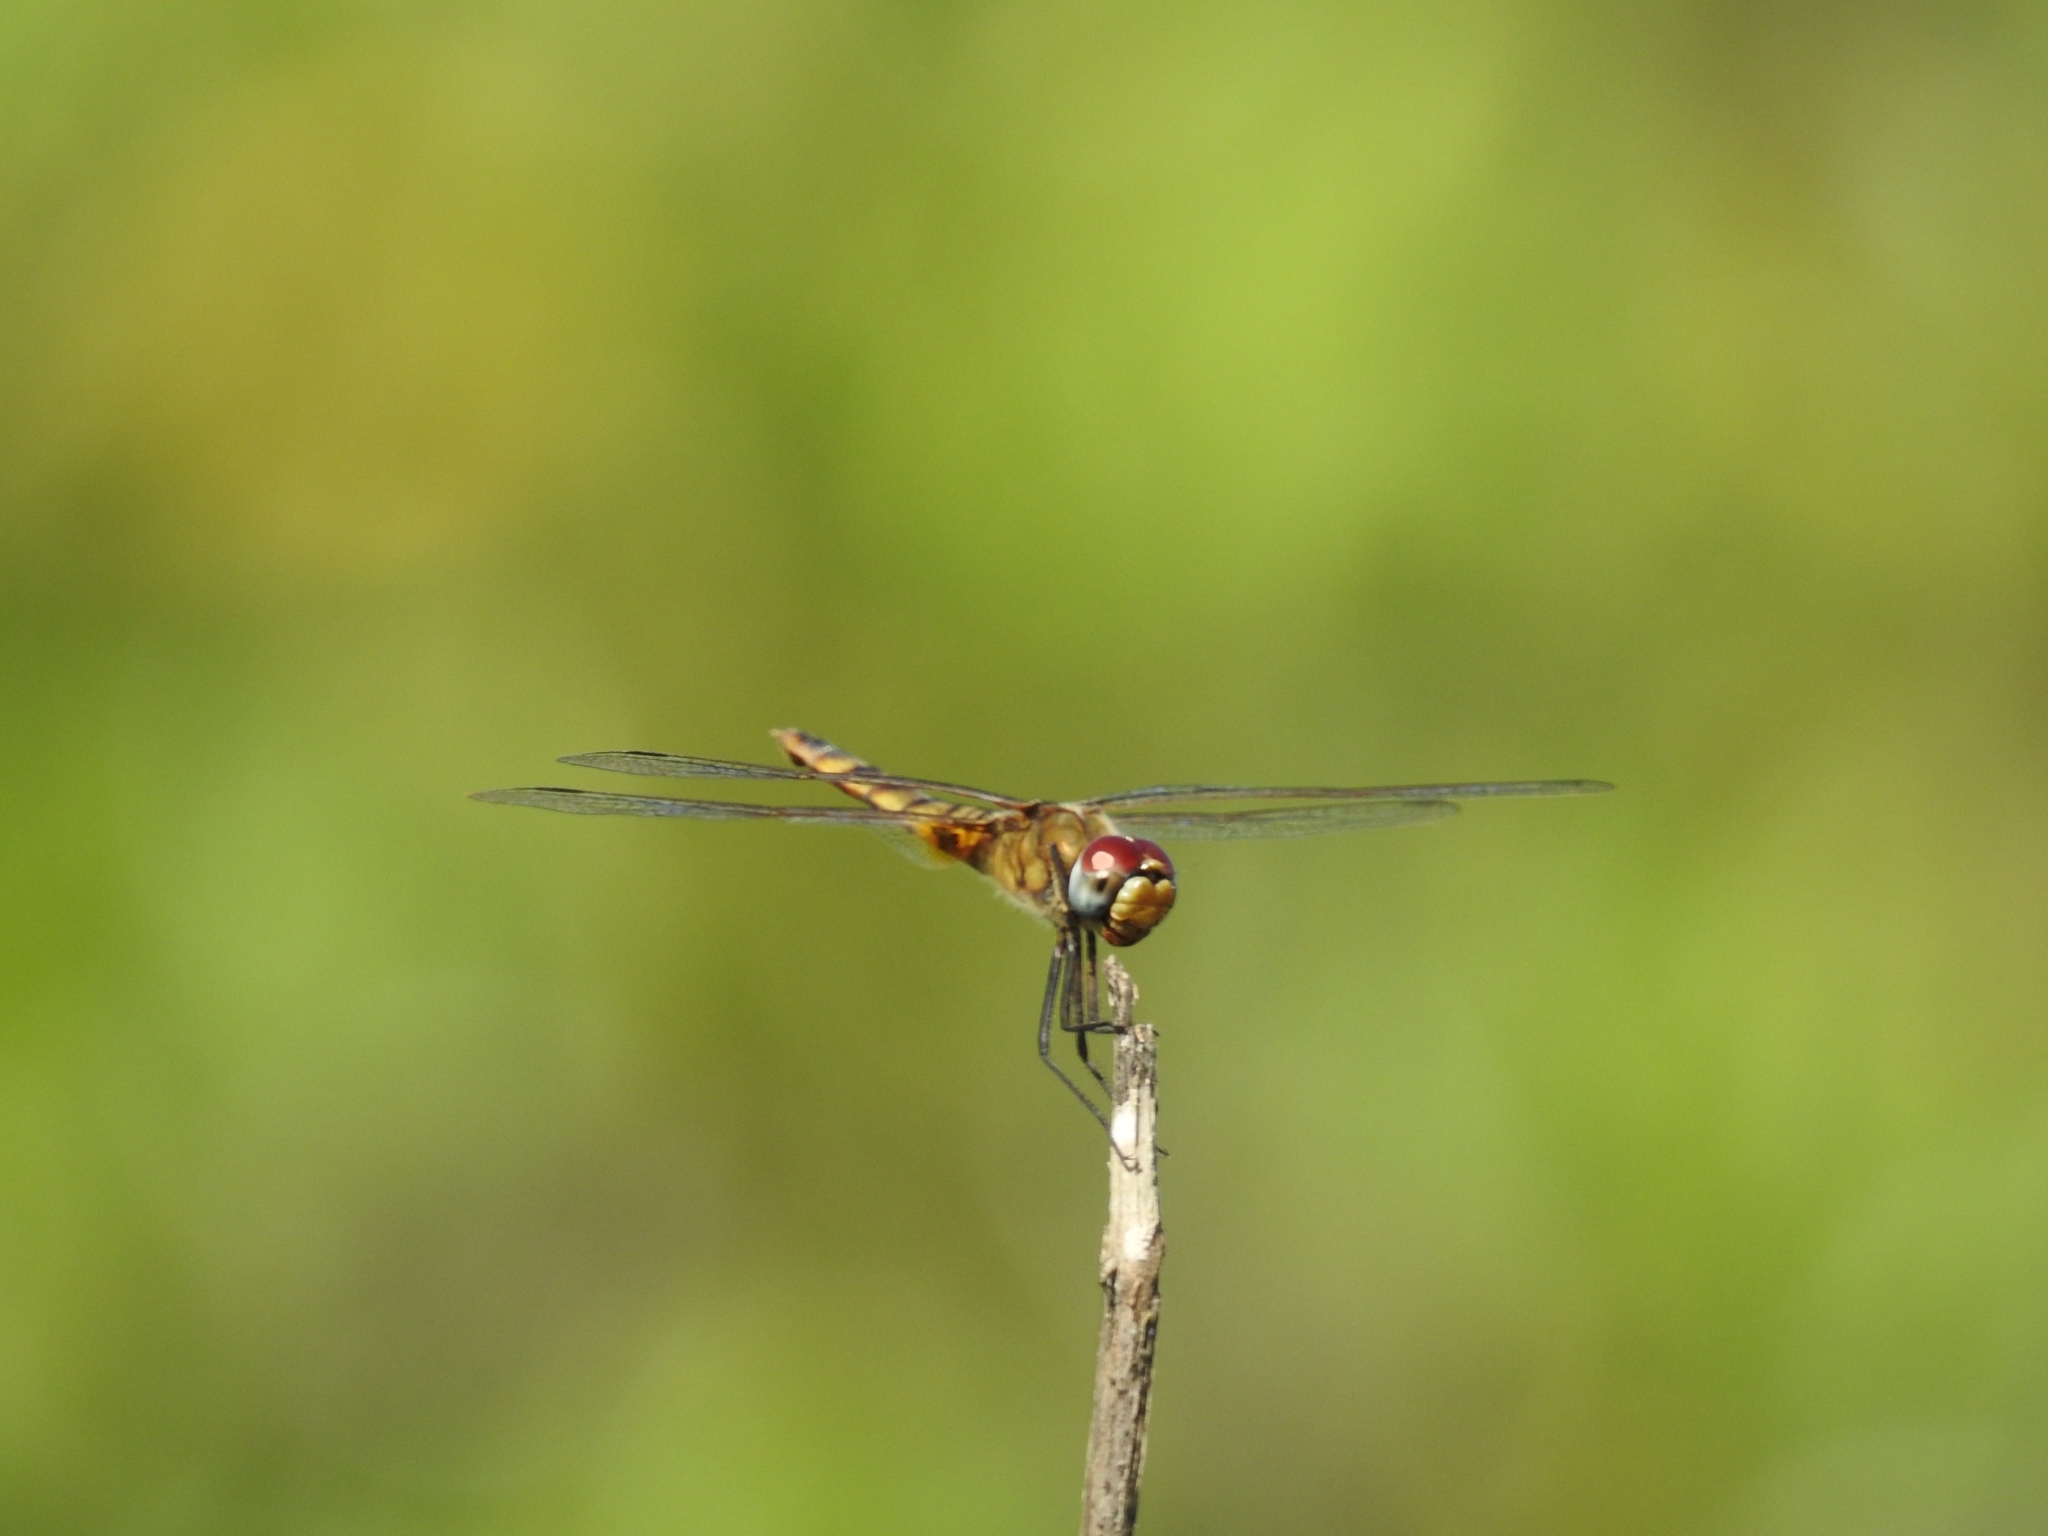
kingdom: Animalia
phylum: Arthropoda
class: Insecta
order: Odonata
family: Libellulidae
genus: Urothemis
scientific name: Urothemis signata
